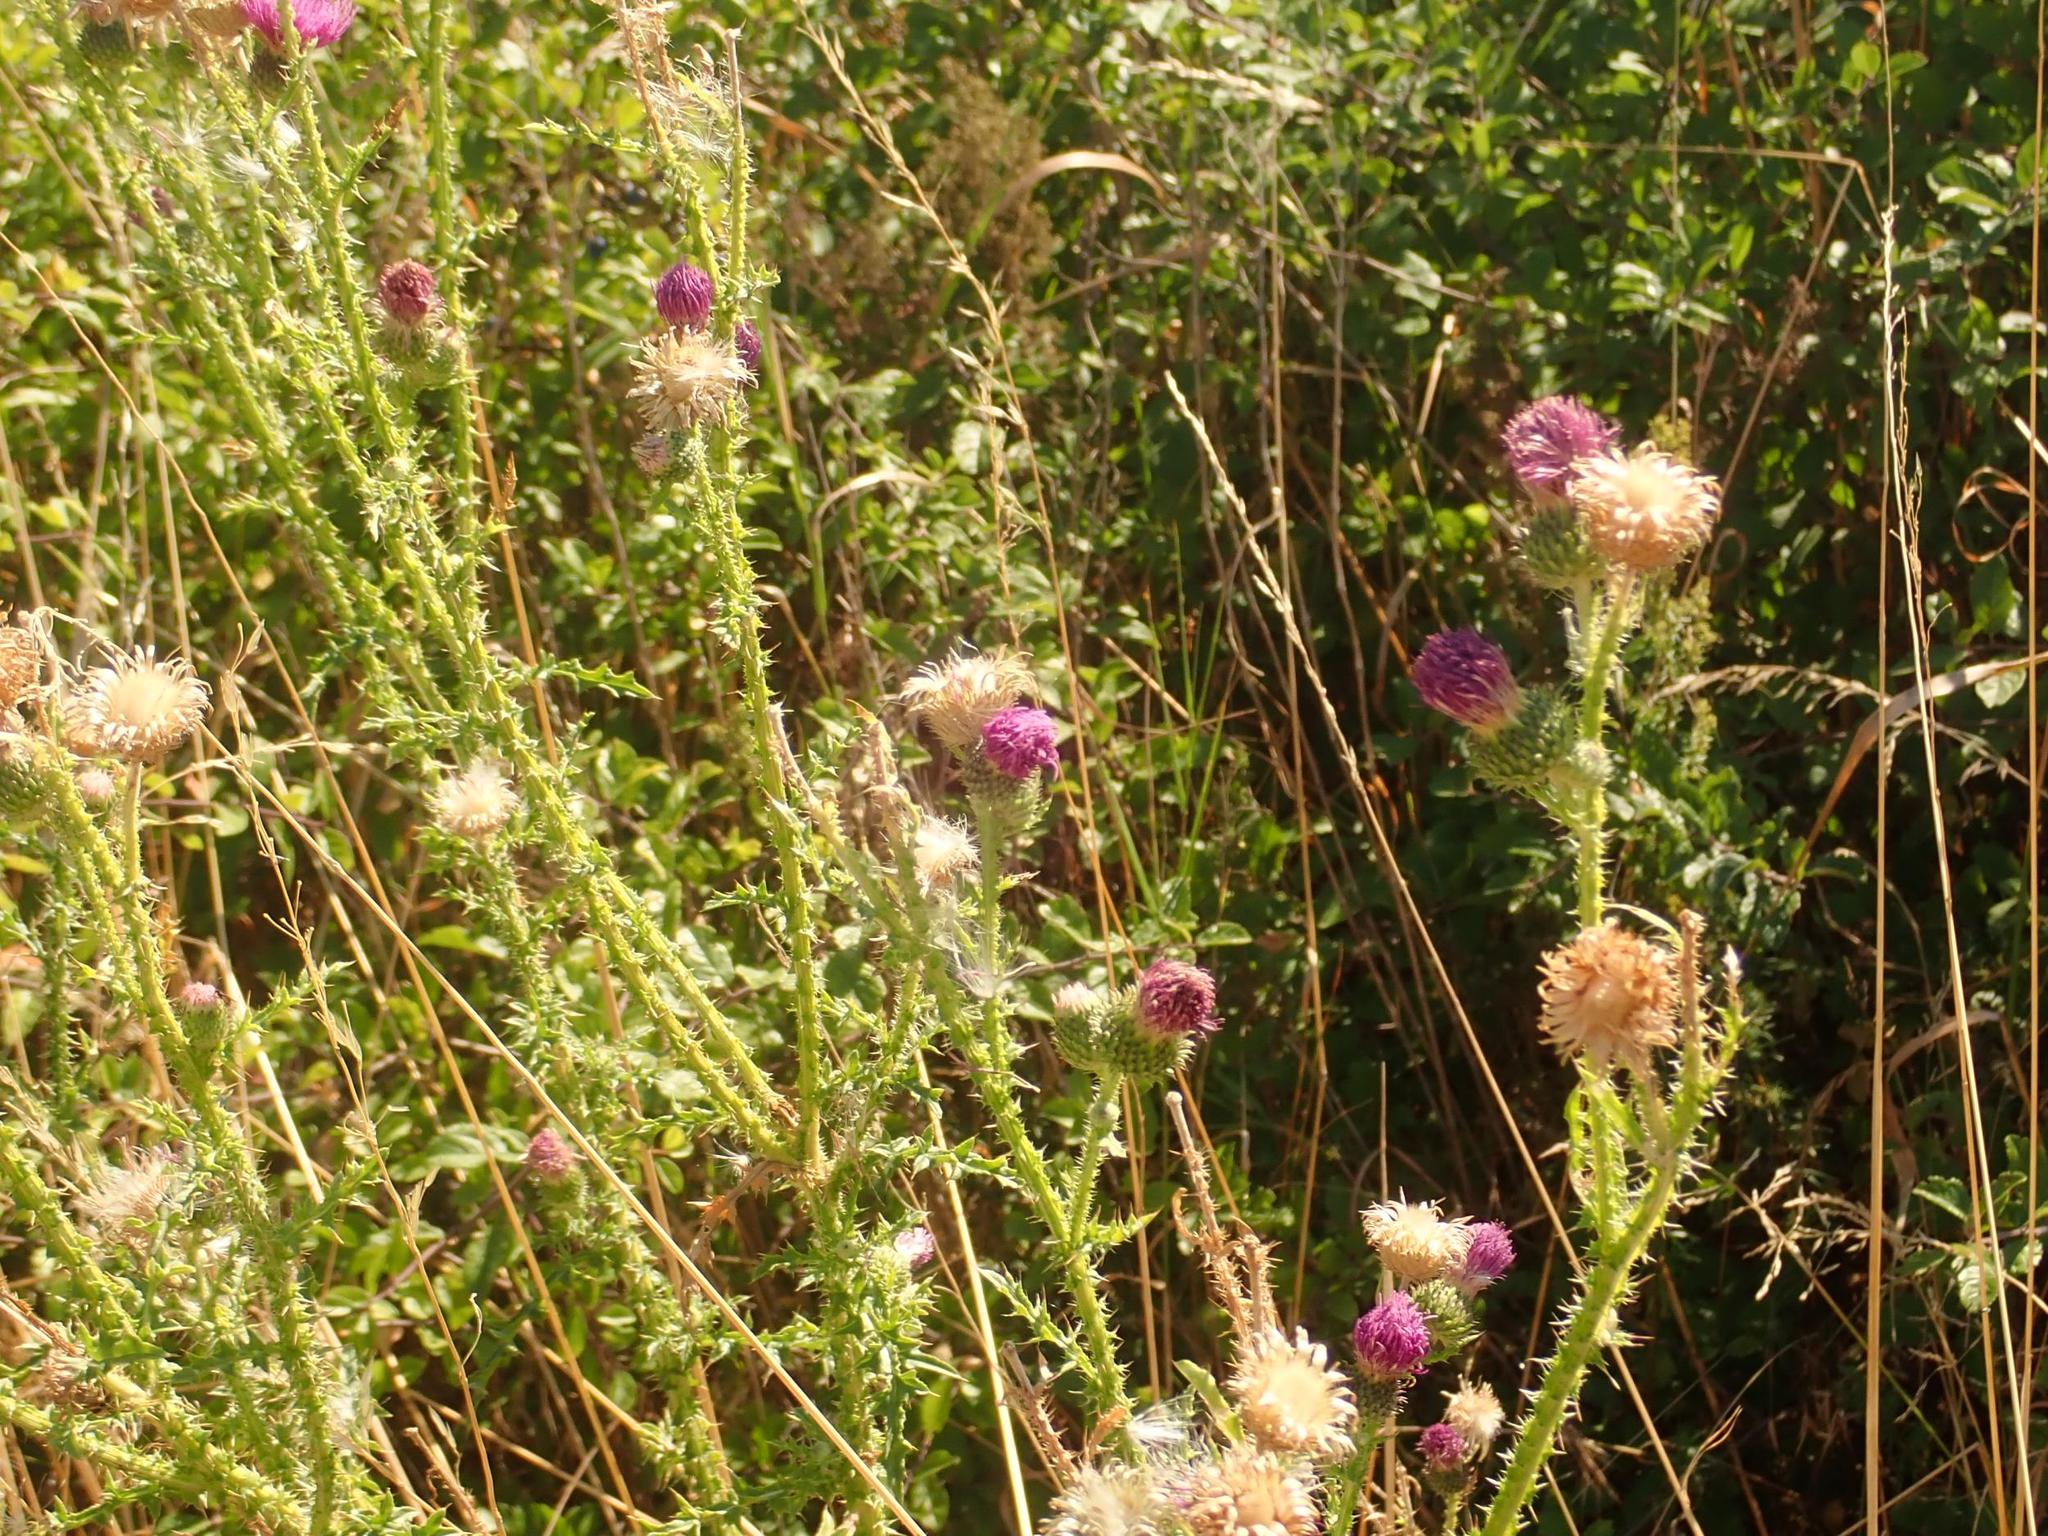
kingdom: Plantae
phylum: Tracheophyta
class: Magnoliopsida
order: Asterales
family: Asteraceae
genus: Carduus
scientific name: Carduus acanthoides
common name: Plumeless thistle
